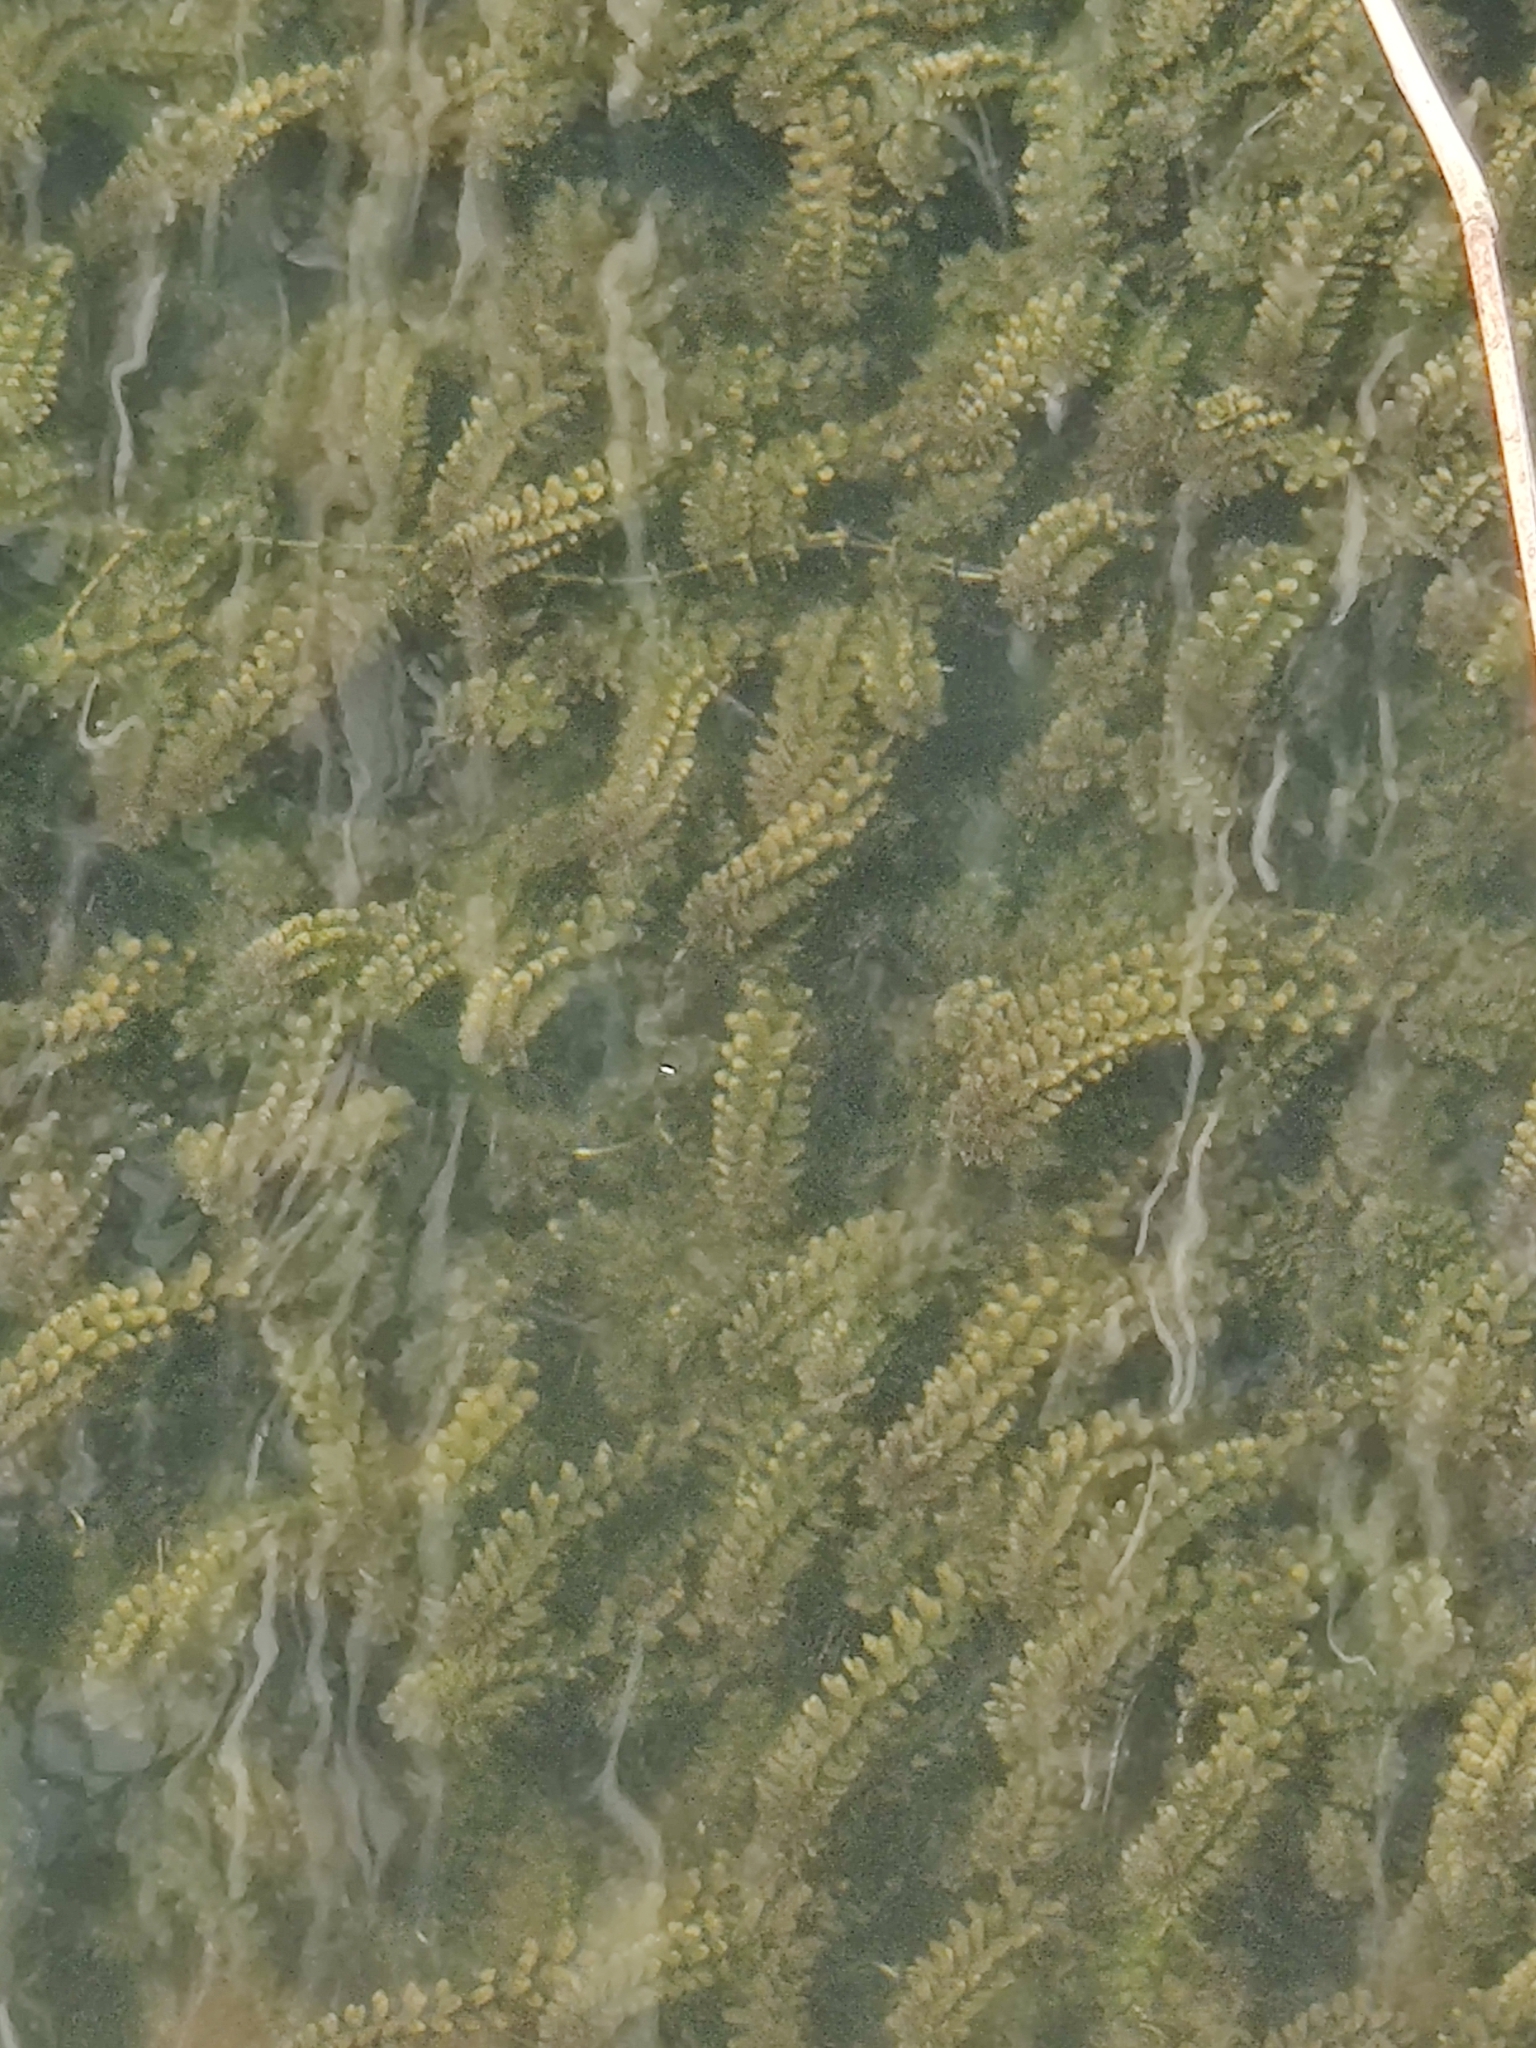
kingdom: Plantae
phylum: Tracheophyta
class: Liliopsida
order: Alismatales
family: Hydrocharitaceae
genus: Elodea
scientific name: Elodea canadensis
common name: Canadian waterweed
